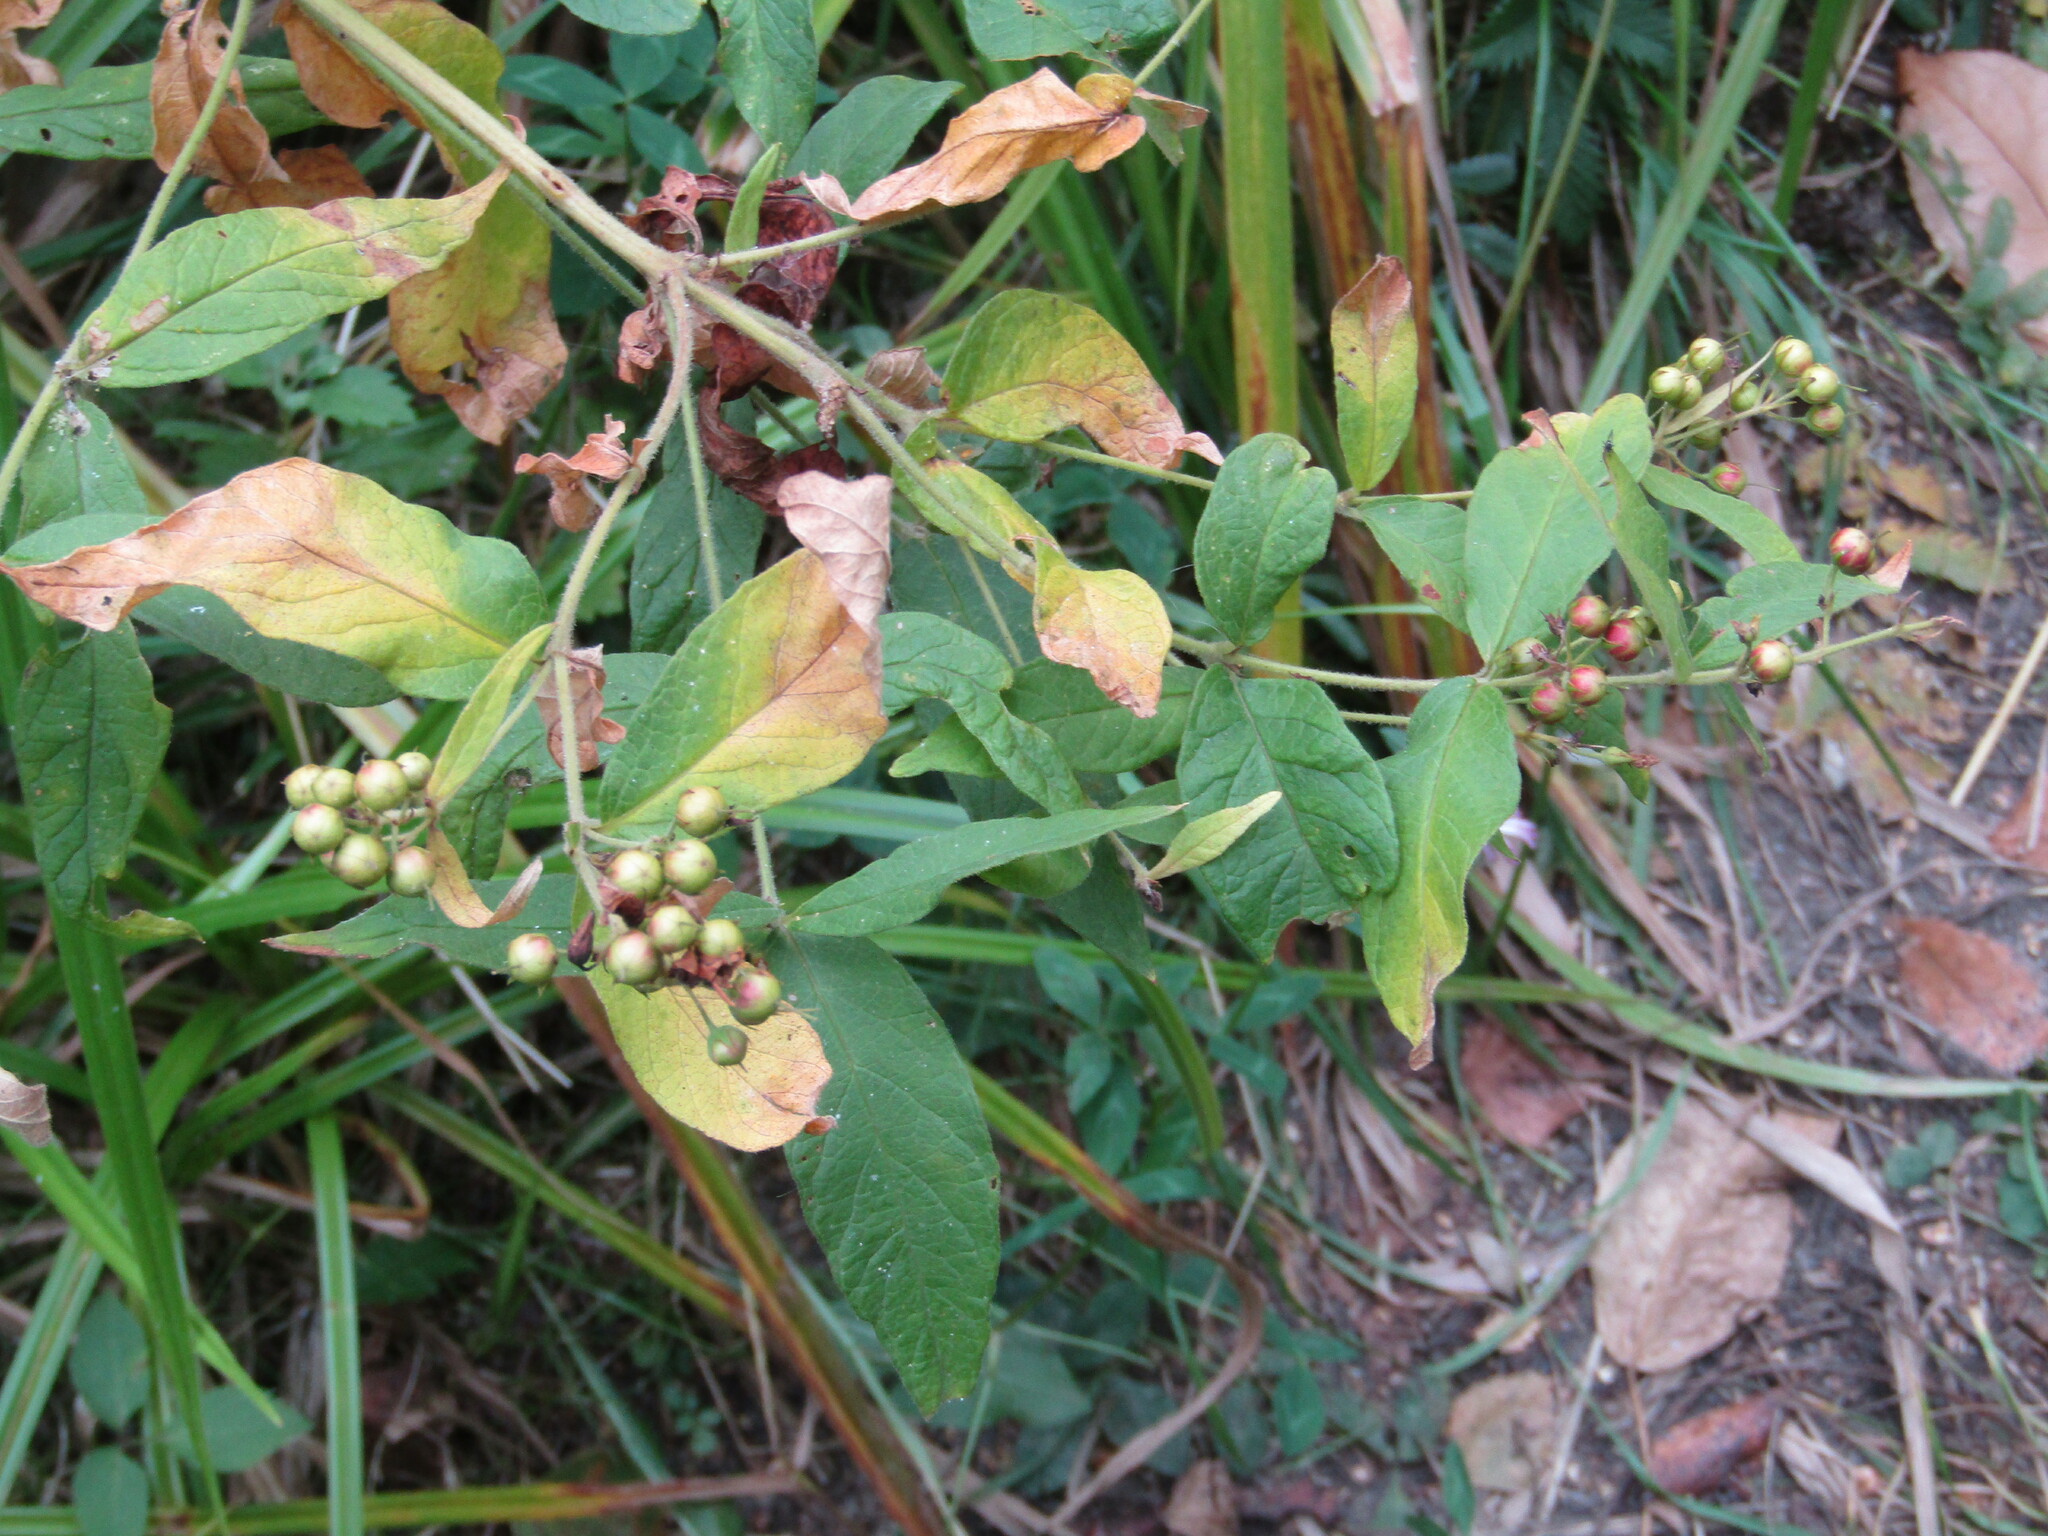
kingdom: Plantae
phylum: Tracheophyta
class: Magnoliopsida
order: Ericales
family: Primulaceae
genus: Lysimachia
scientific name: Lysimachia vulgaris
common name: Yellow loosestrife
